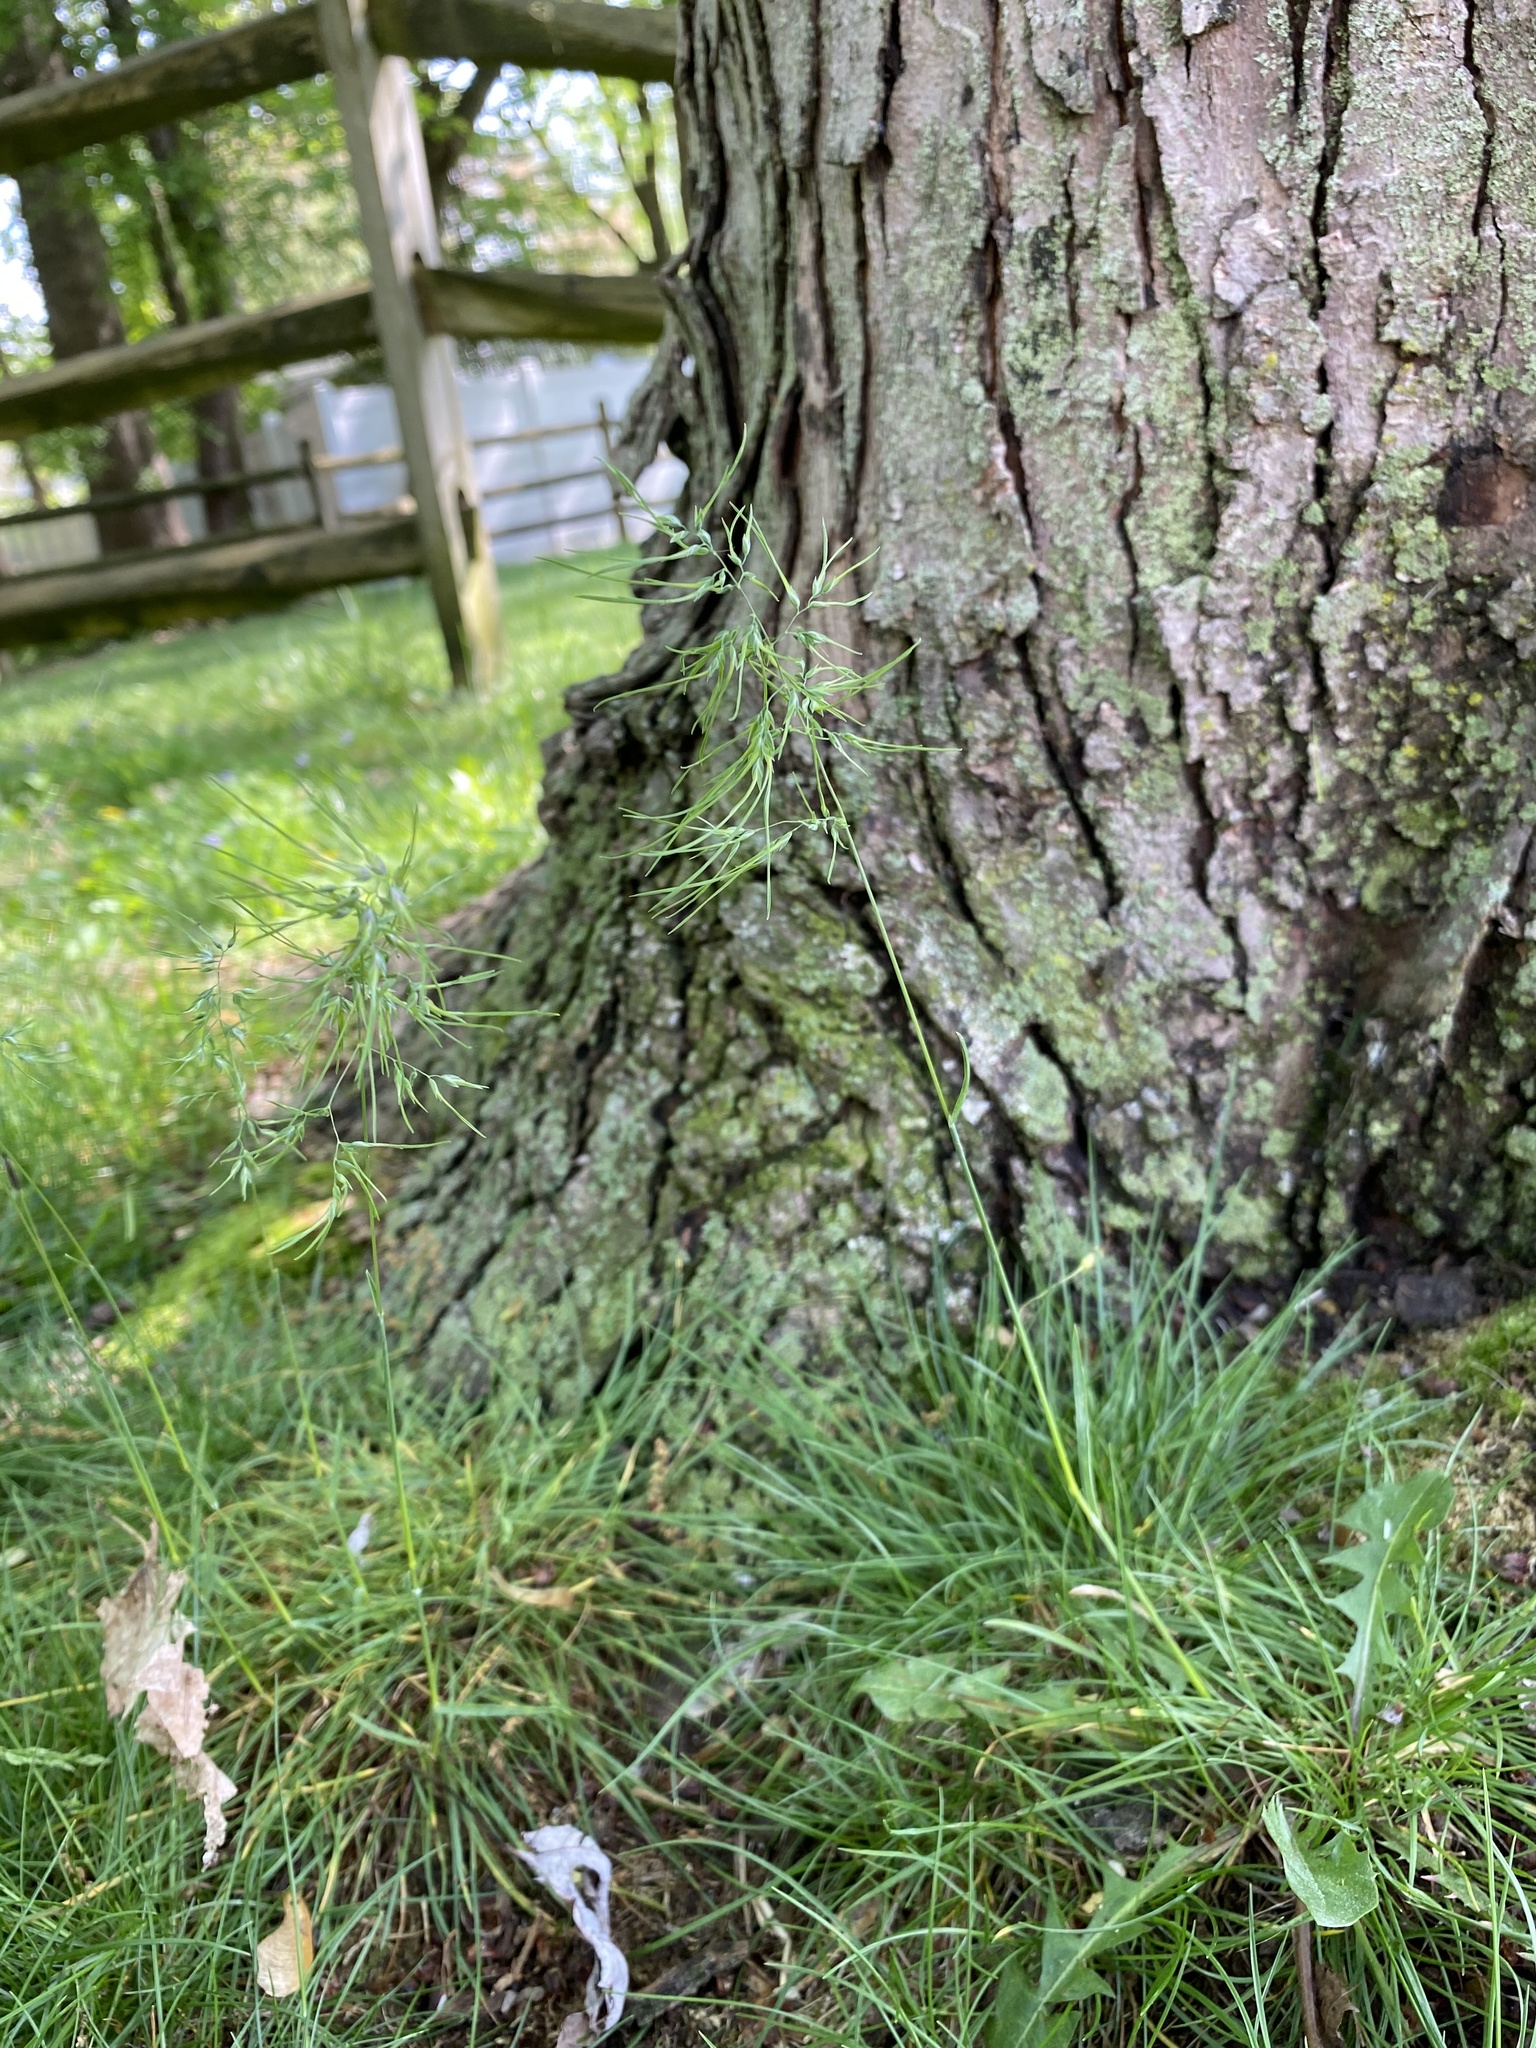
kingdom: Plantae
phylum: Tracheophyta
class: Liliopsida
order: Poales
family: Poaceae
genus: Poa
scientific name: Poa bulbosa
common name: Bulbous bluegrass
